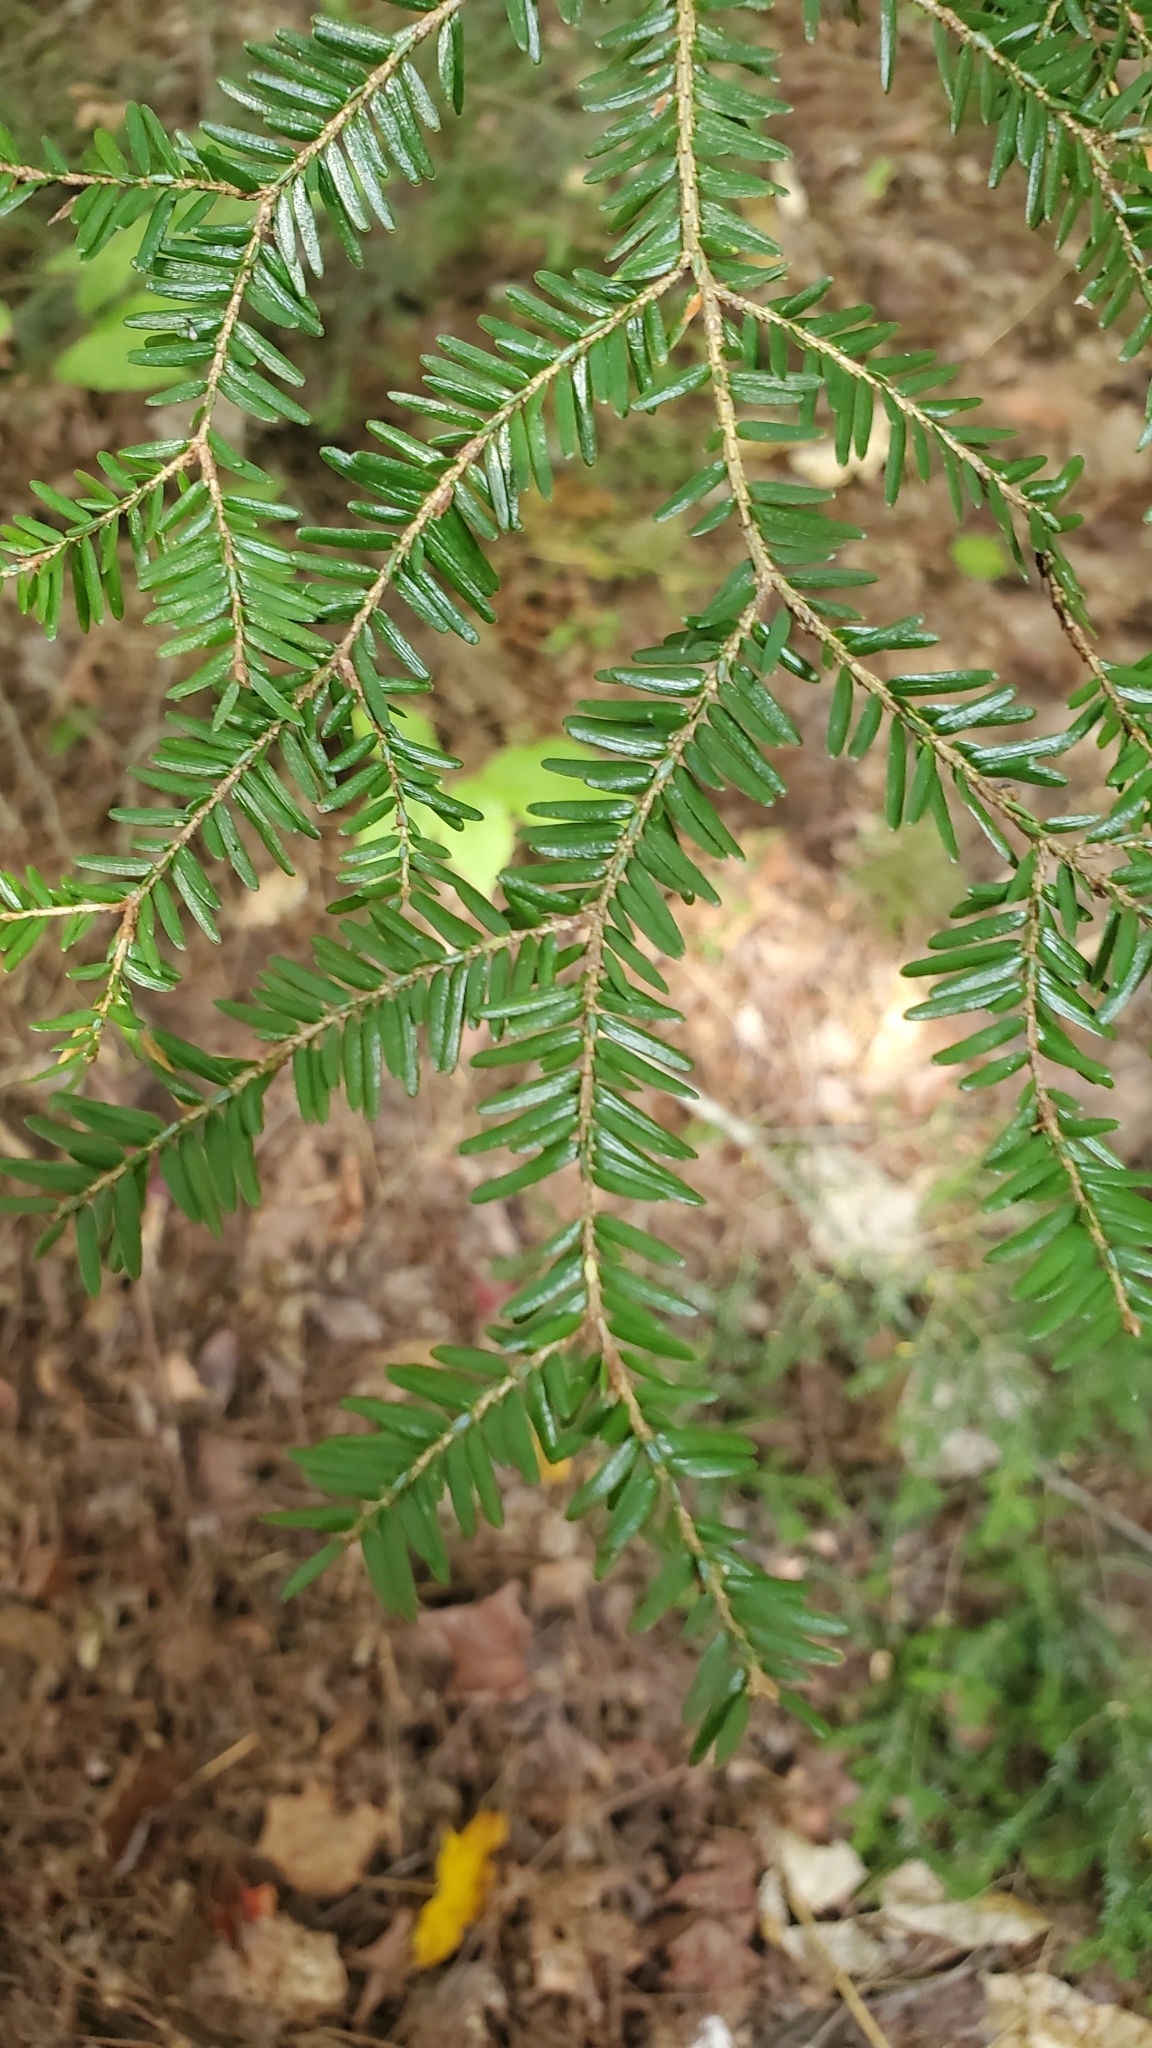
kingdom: Plantae
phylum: Tracheophyta
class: Pinopsida
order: Pinales
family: Pinaceae
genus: Tsuga
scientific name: Tsuga canadensis
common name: Eastern hemlock
